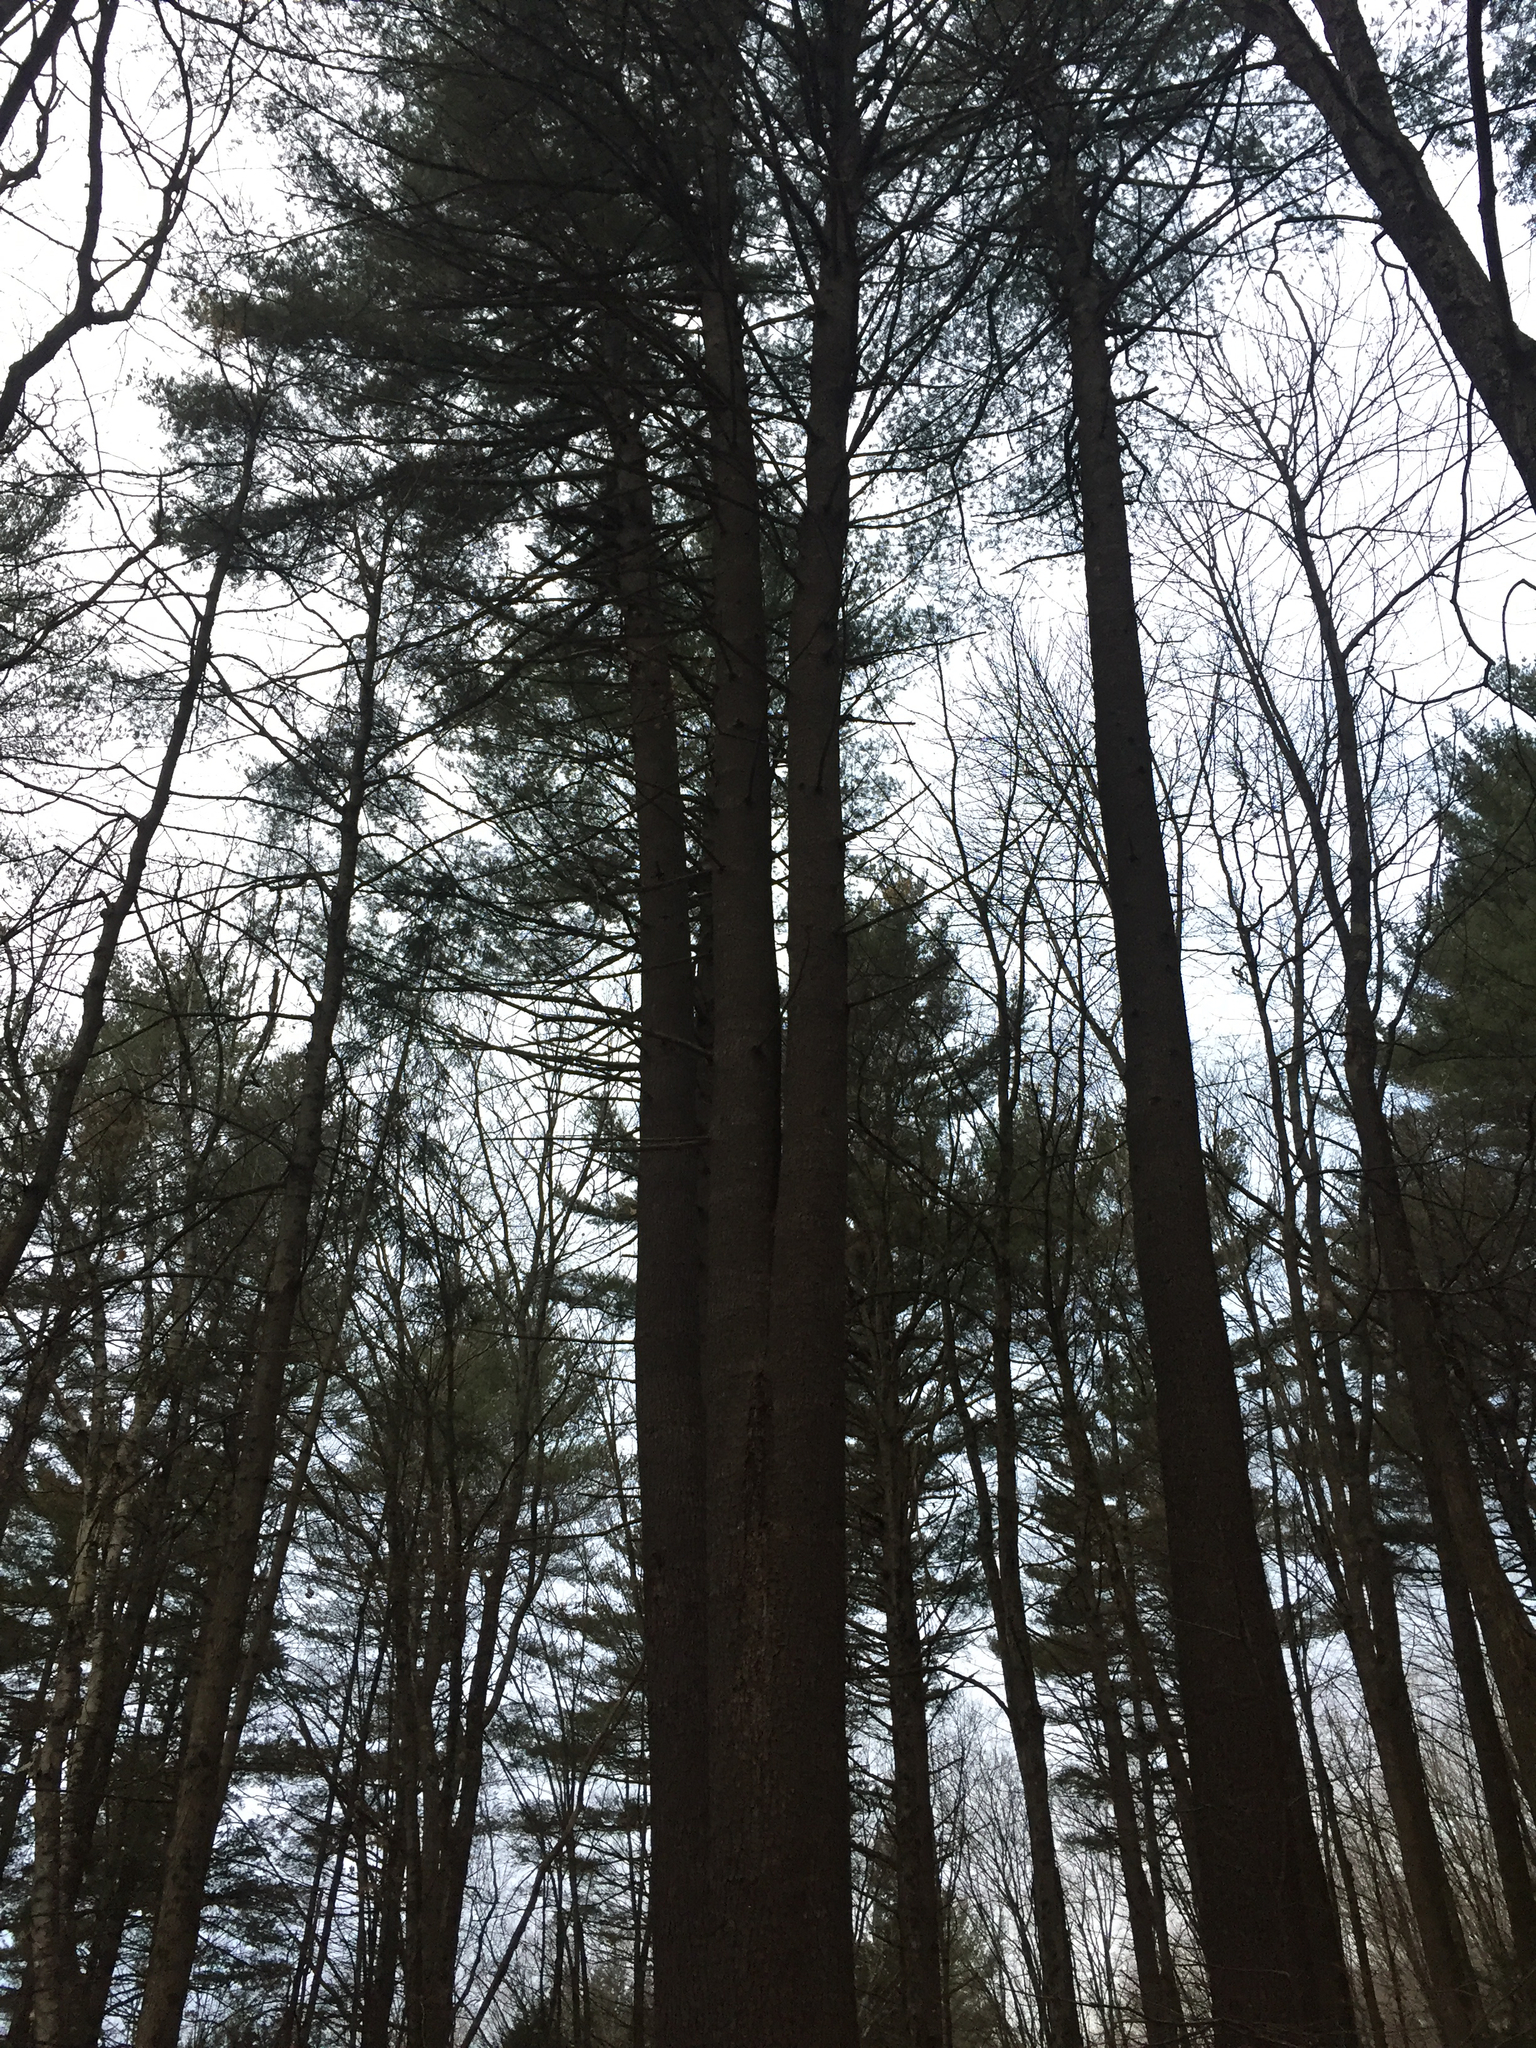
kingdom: Plantae
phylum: Tracheophyta
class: Pinopsida
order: Pinales
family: Pinaceae
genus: Pinus
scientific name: Pinus strobus
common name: Weymouth pine
